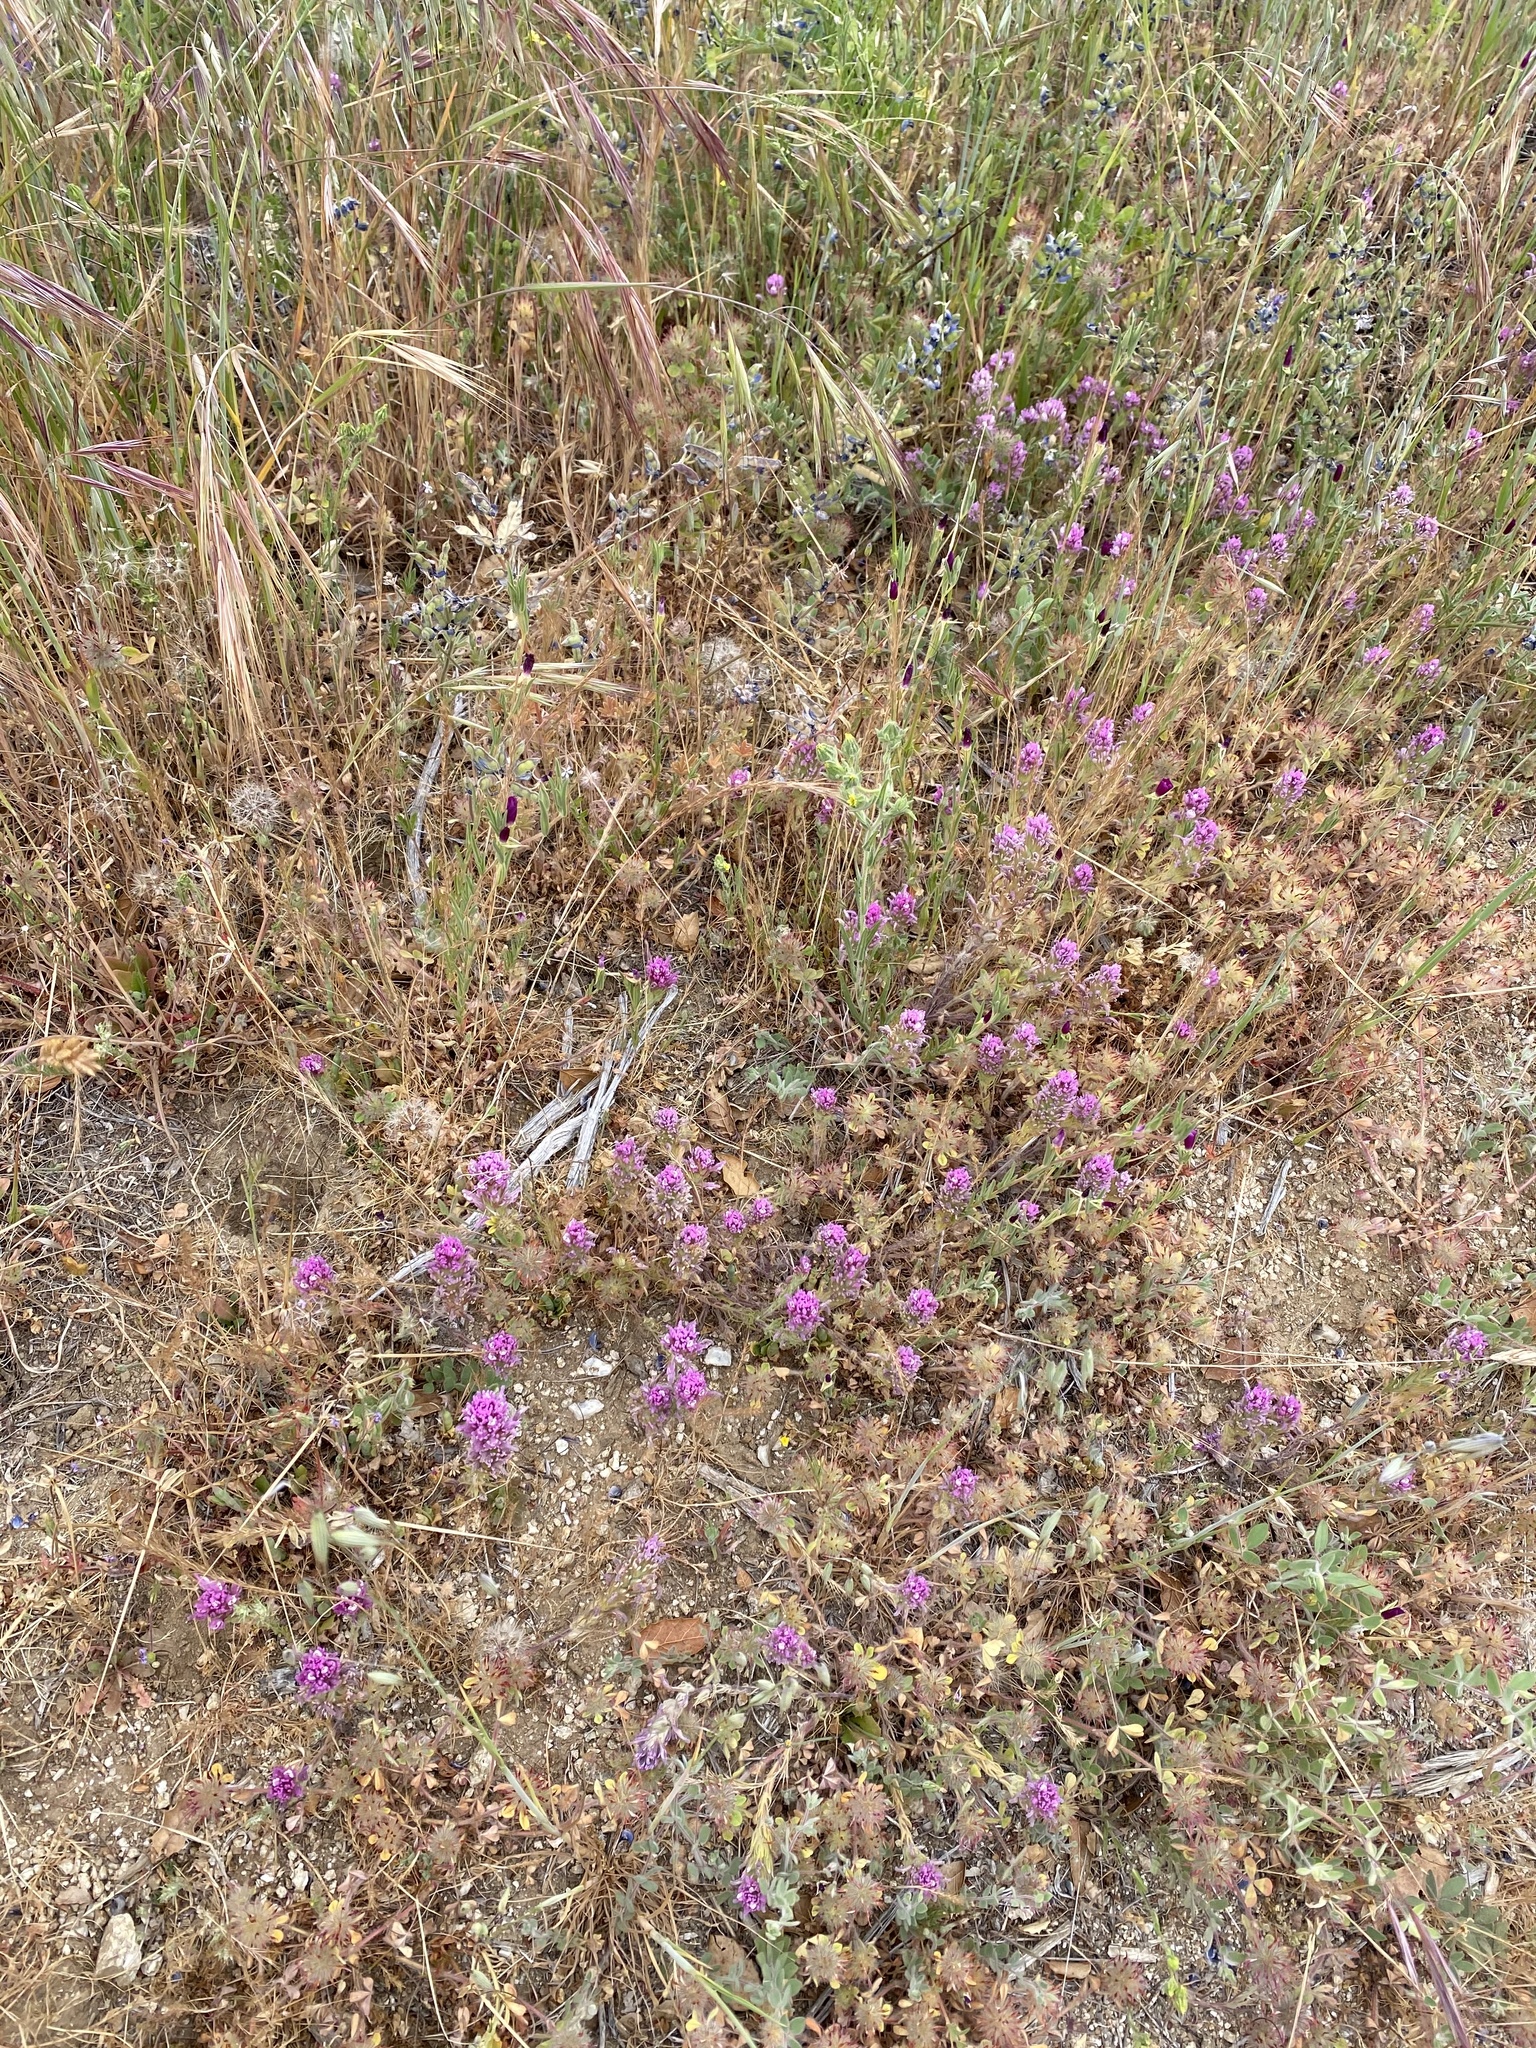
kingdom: Plantae
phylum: Tracheophyta
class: Magnoliopsida
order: Lamiales
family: Orobanchaceae
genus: Castilleja
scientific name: Castilleja exserta
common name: Purple owl-clover
